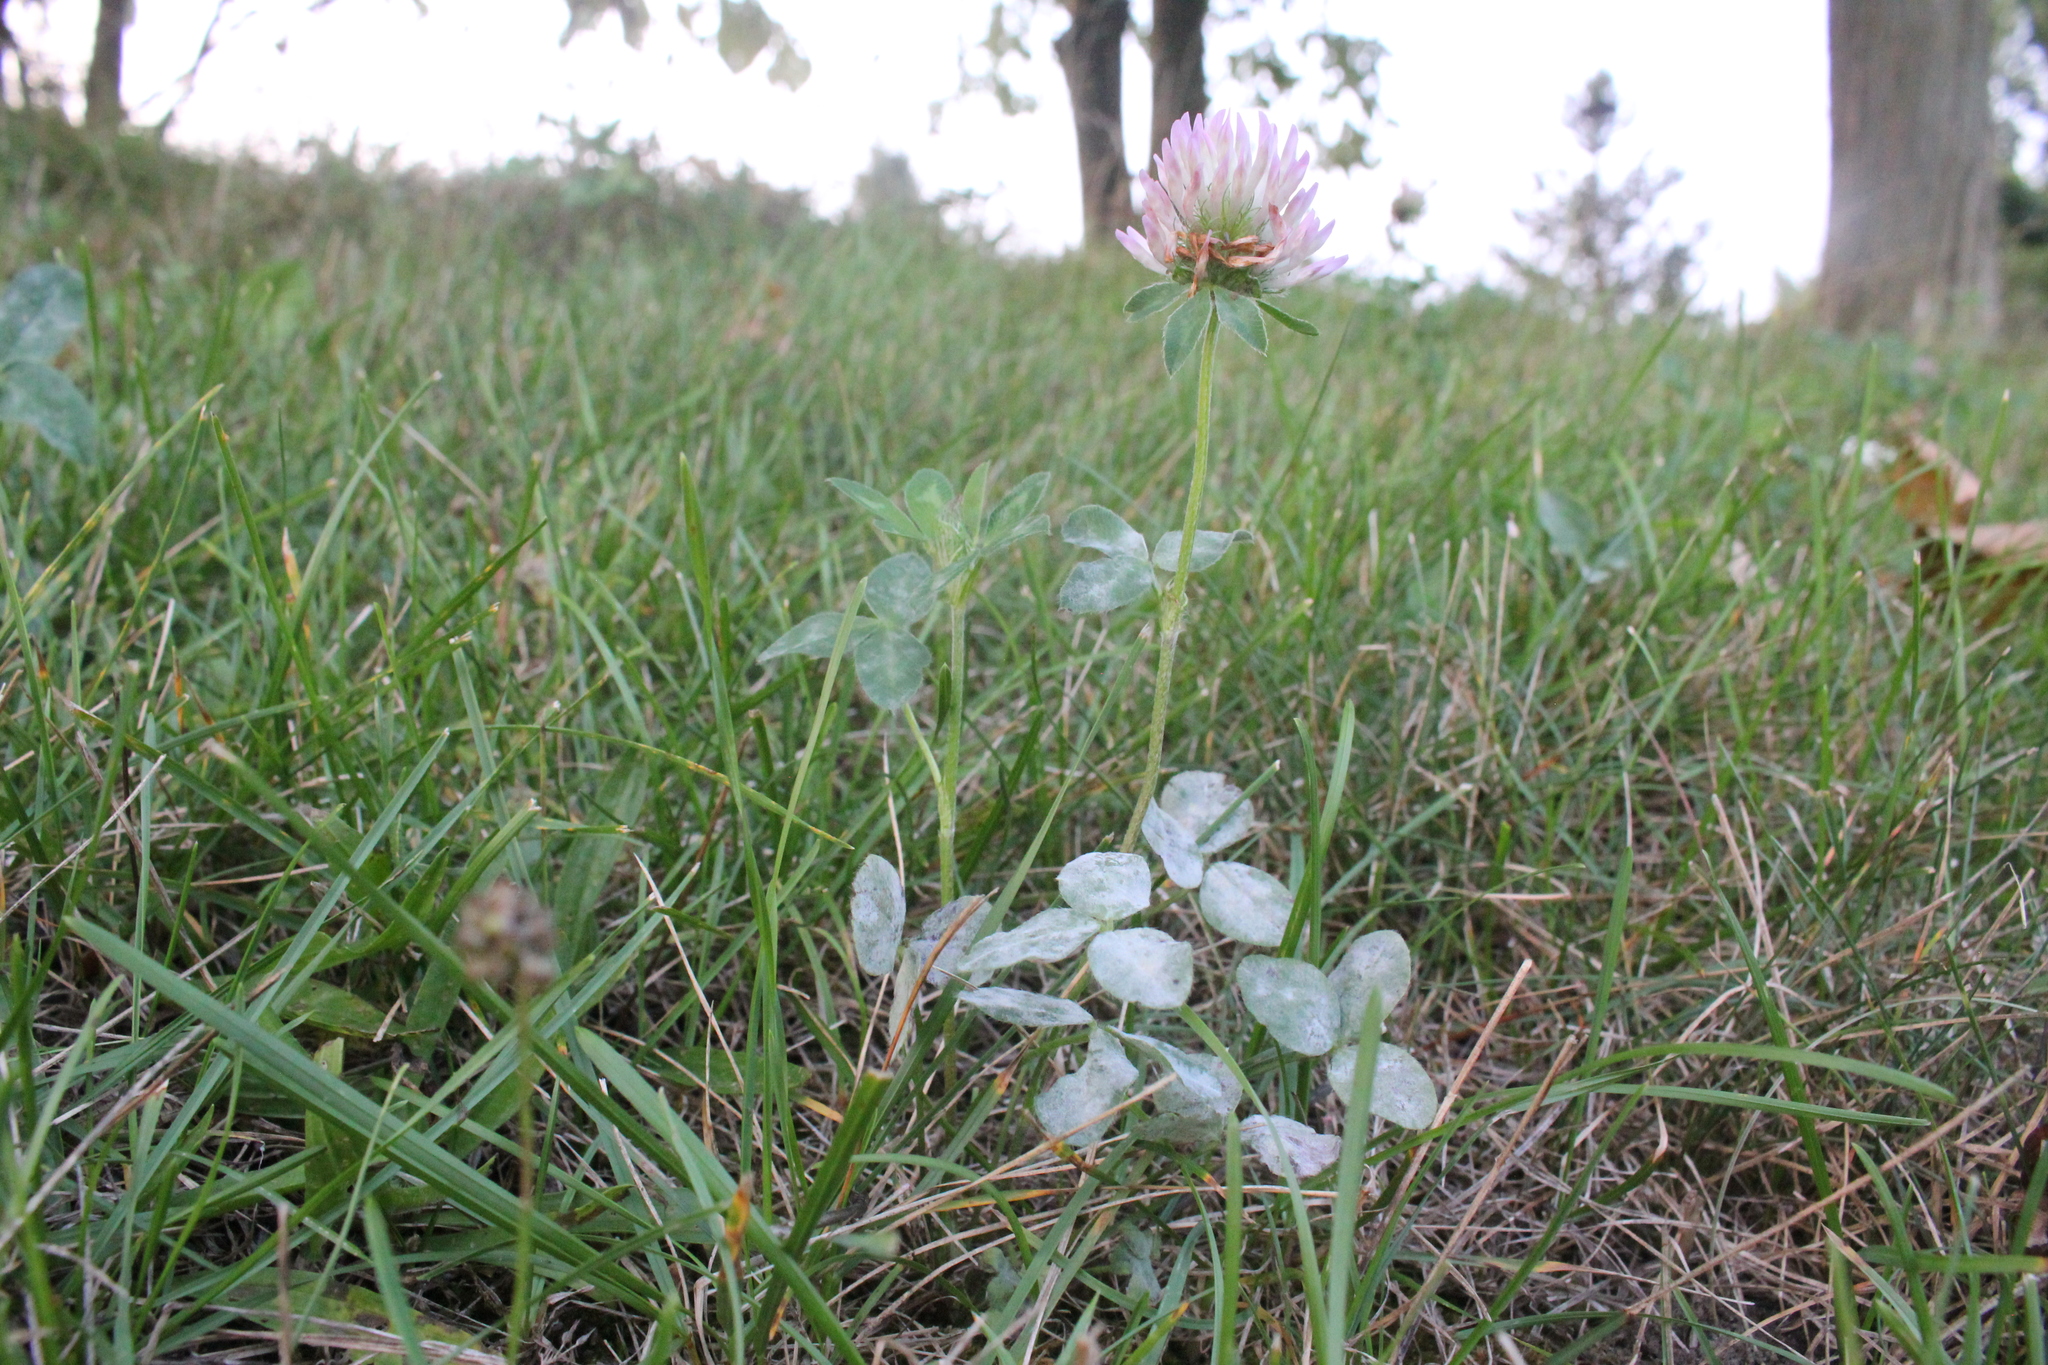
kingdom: Plantae
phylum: Tracheophyta
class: Magnoliopsida
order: Fabales
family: Fabaceae
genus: Trifolium
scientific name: Trifolium pratense
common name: Red clover
